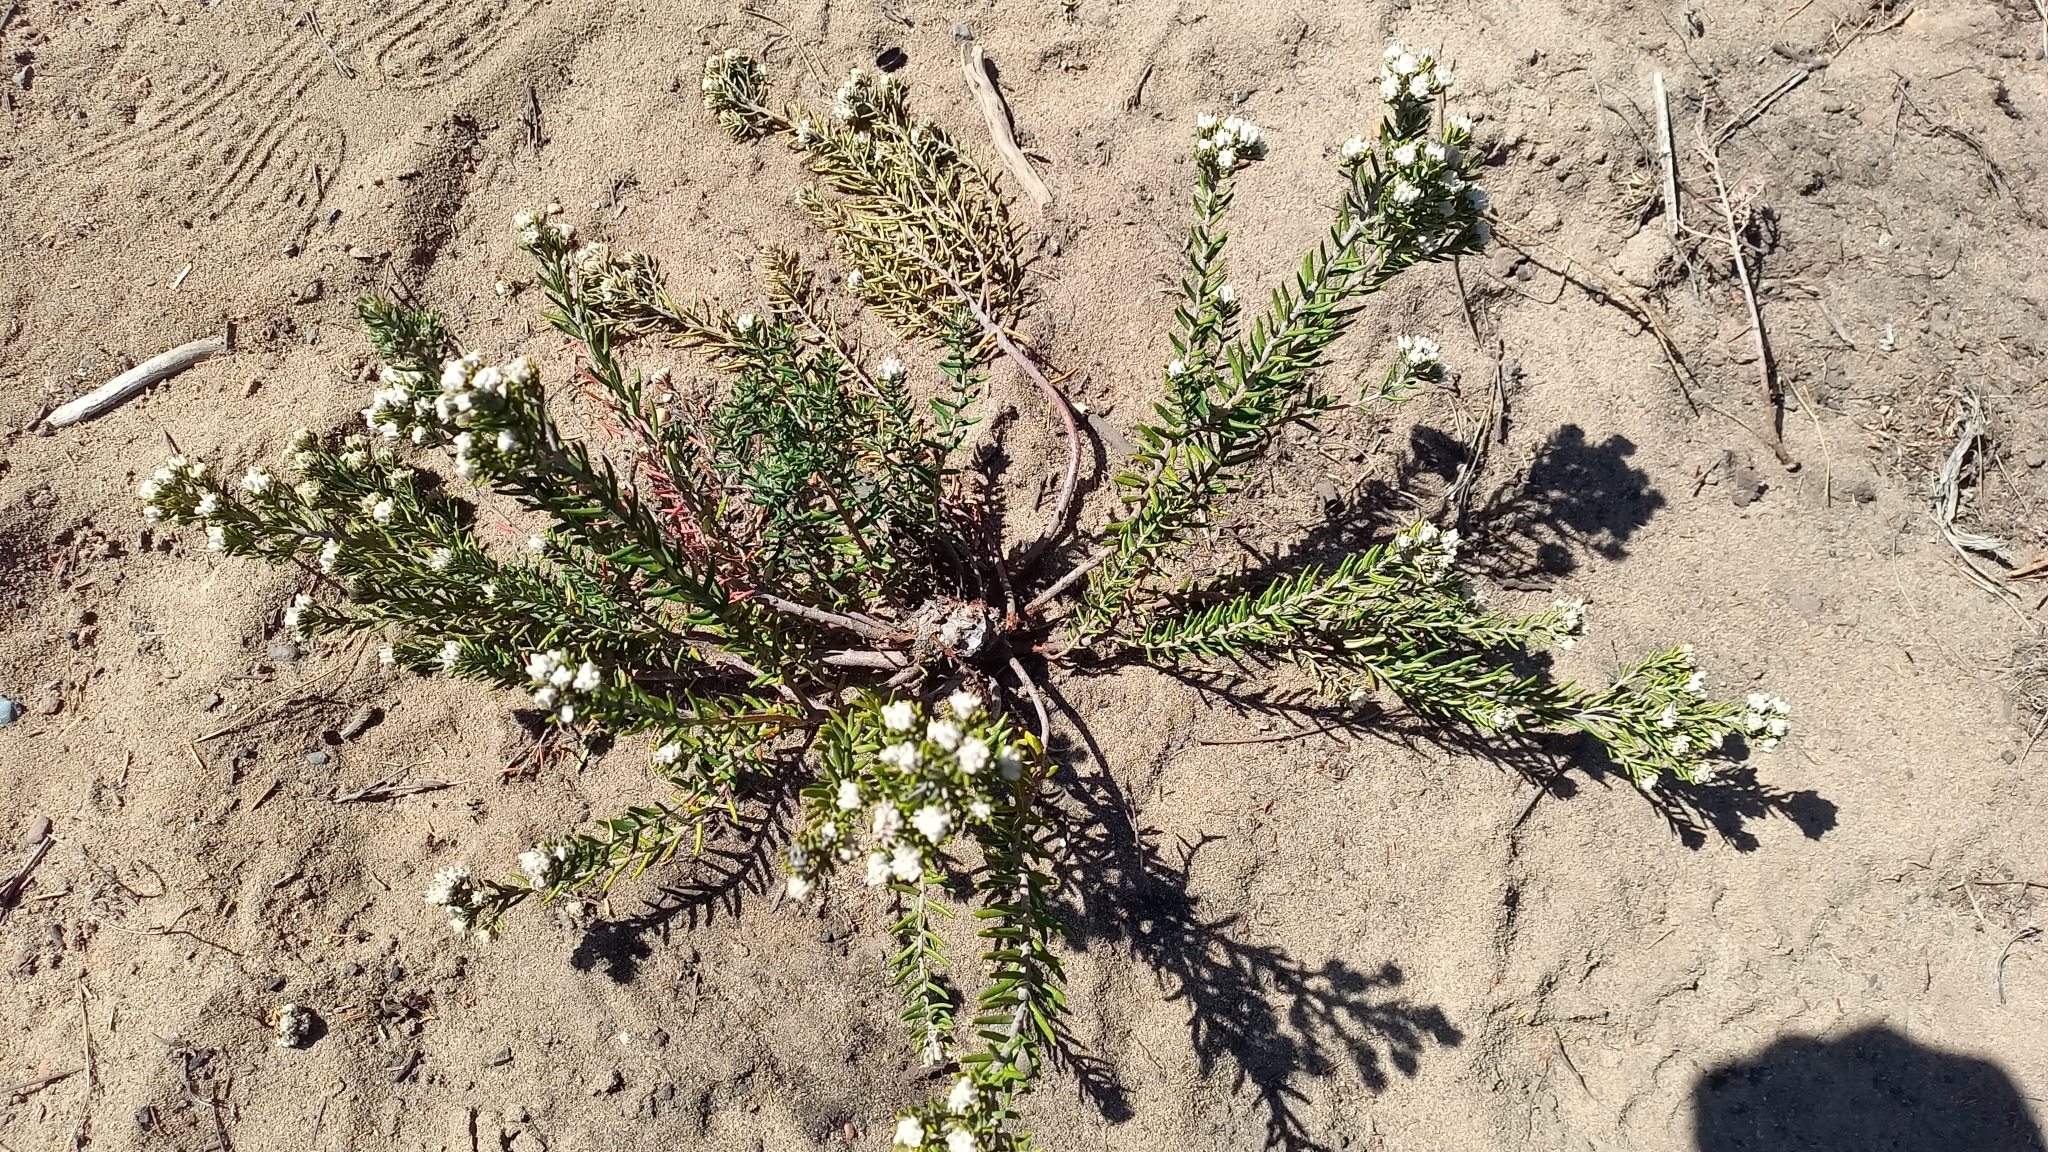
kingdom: Plantae
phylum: Tracheophyta
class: Magnoliopsida
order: Rosales
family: Rhamnaceae
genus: Trichocephalus
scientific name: Trichocephalus stipularis
